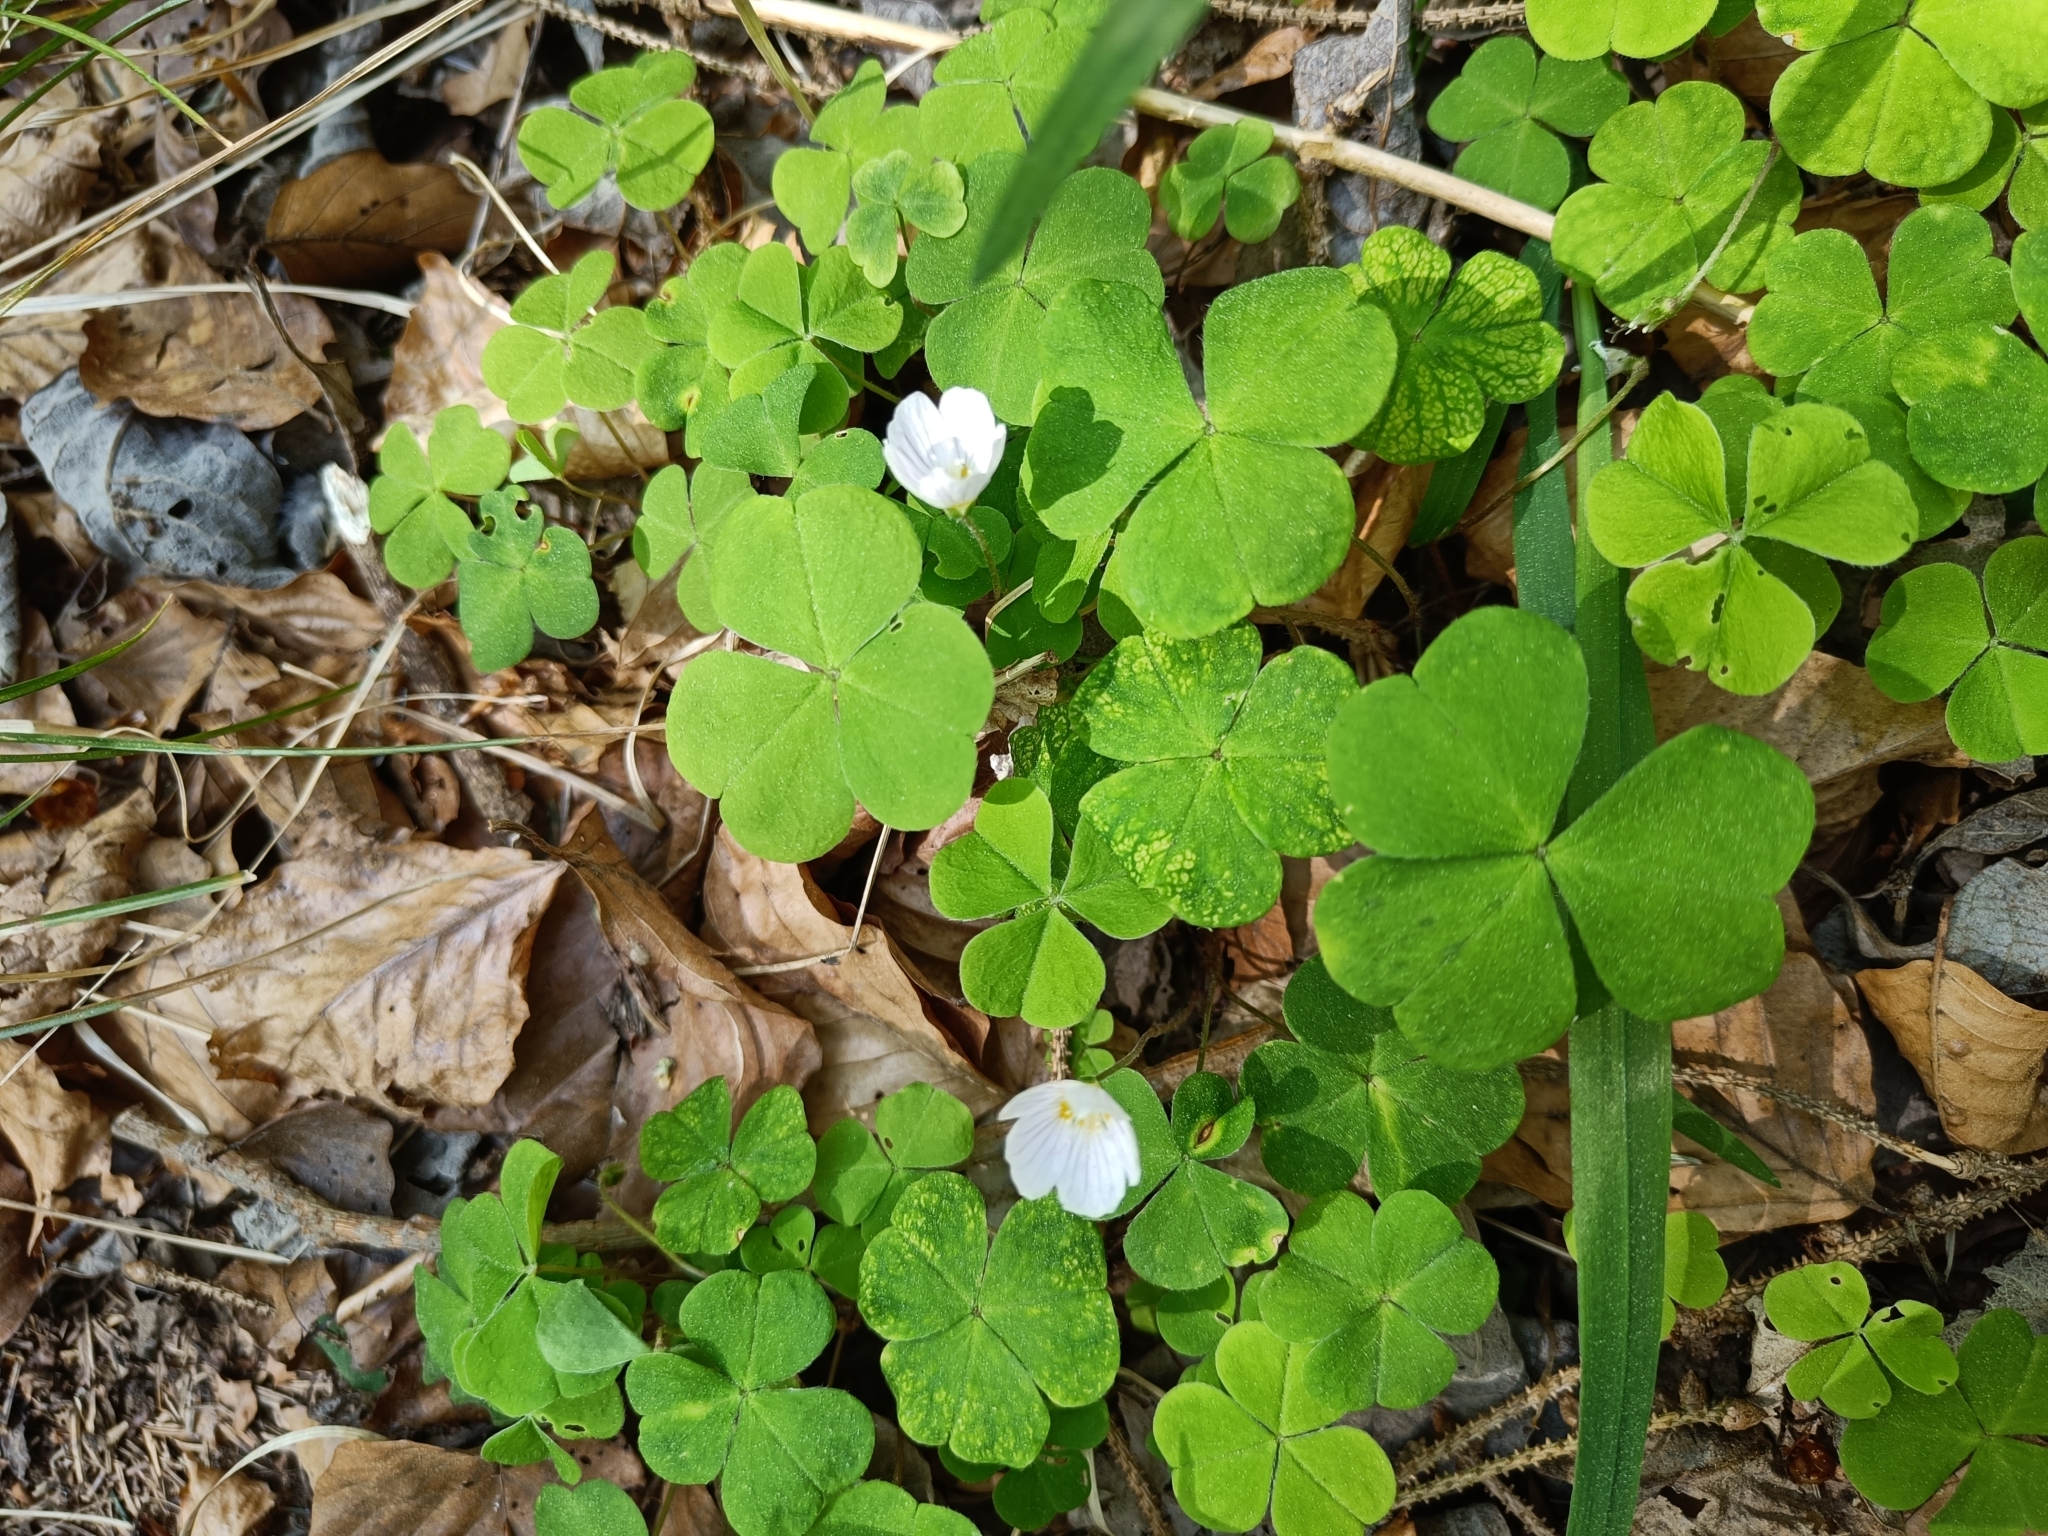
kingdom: Plantae
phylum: Tracheophyta
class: Magnoliopsida
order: Oxalidales
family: Oxalidaceae
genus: Oxalis
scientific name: Oxalis acetosella
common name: Wood-sorrel
